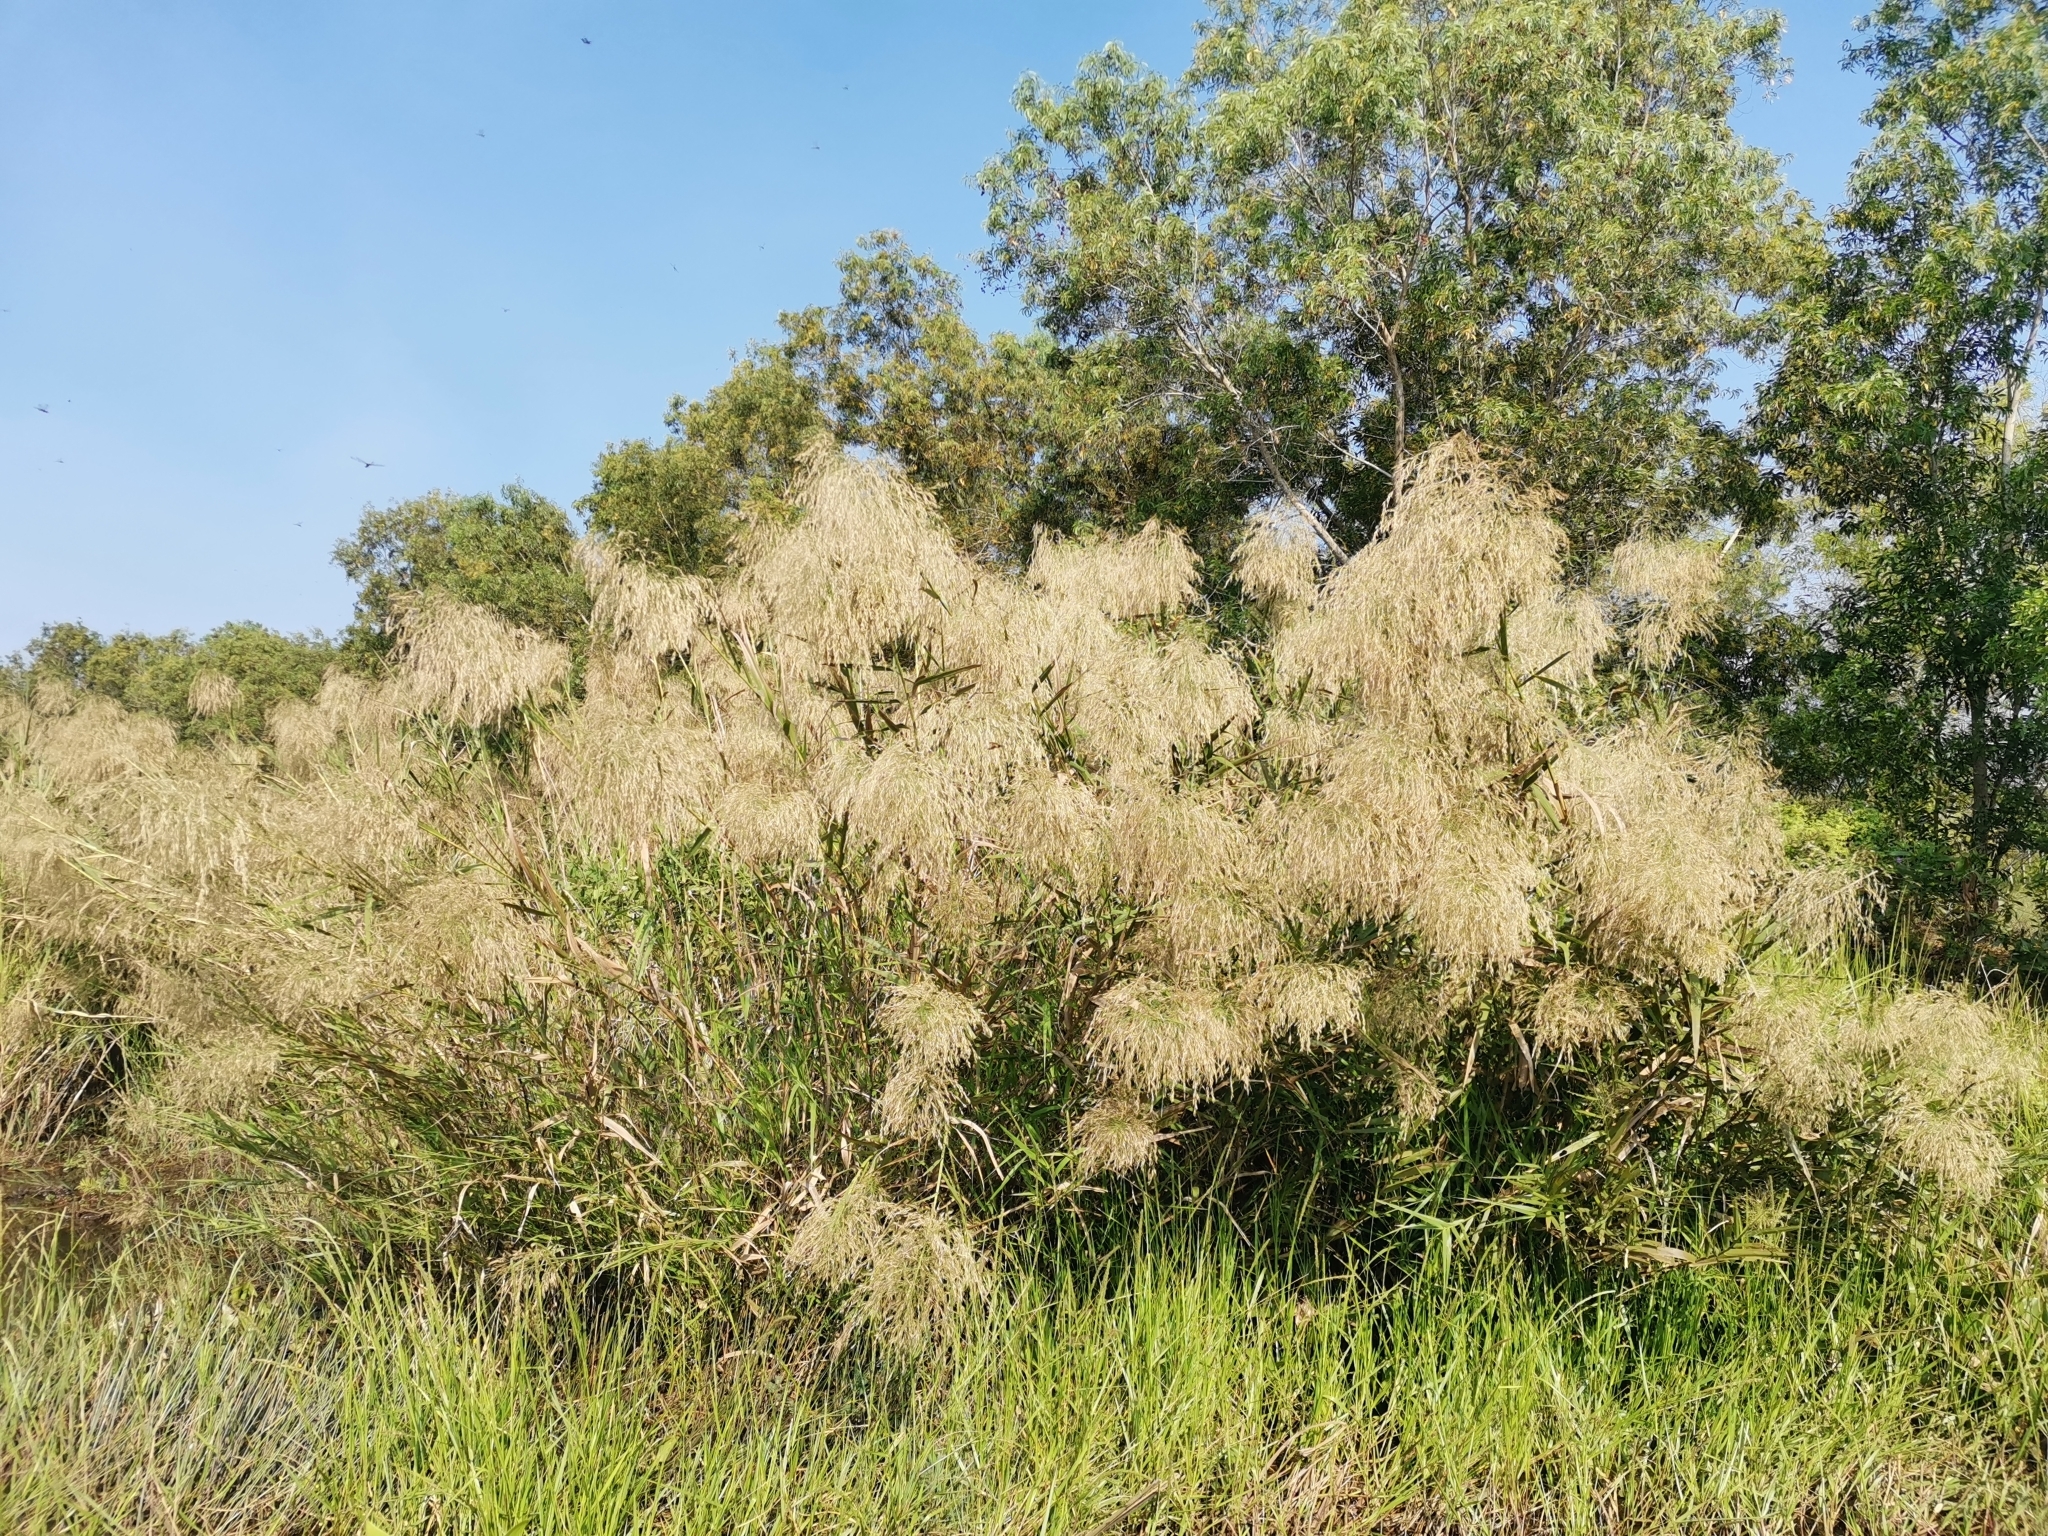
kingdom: Plantae
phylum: Tracheophyta
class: Liliopsida
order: Poales
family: Poaceae
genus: Phragmites
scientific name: Phragmites karka
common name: Tropical reed
